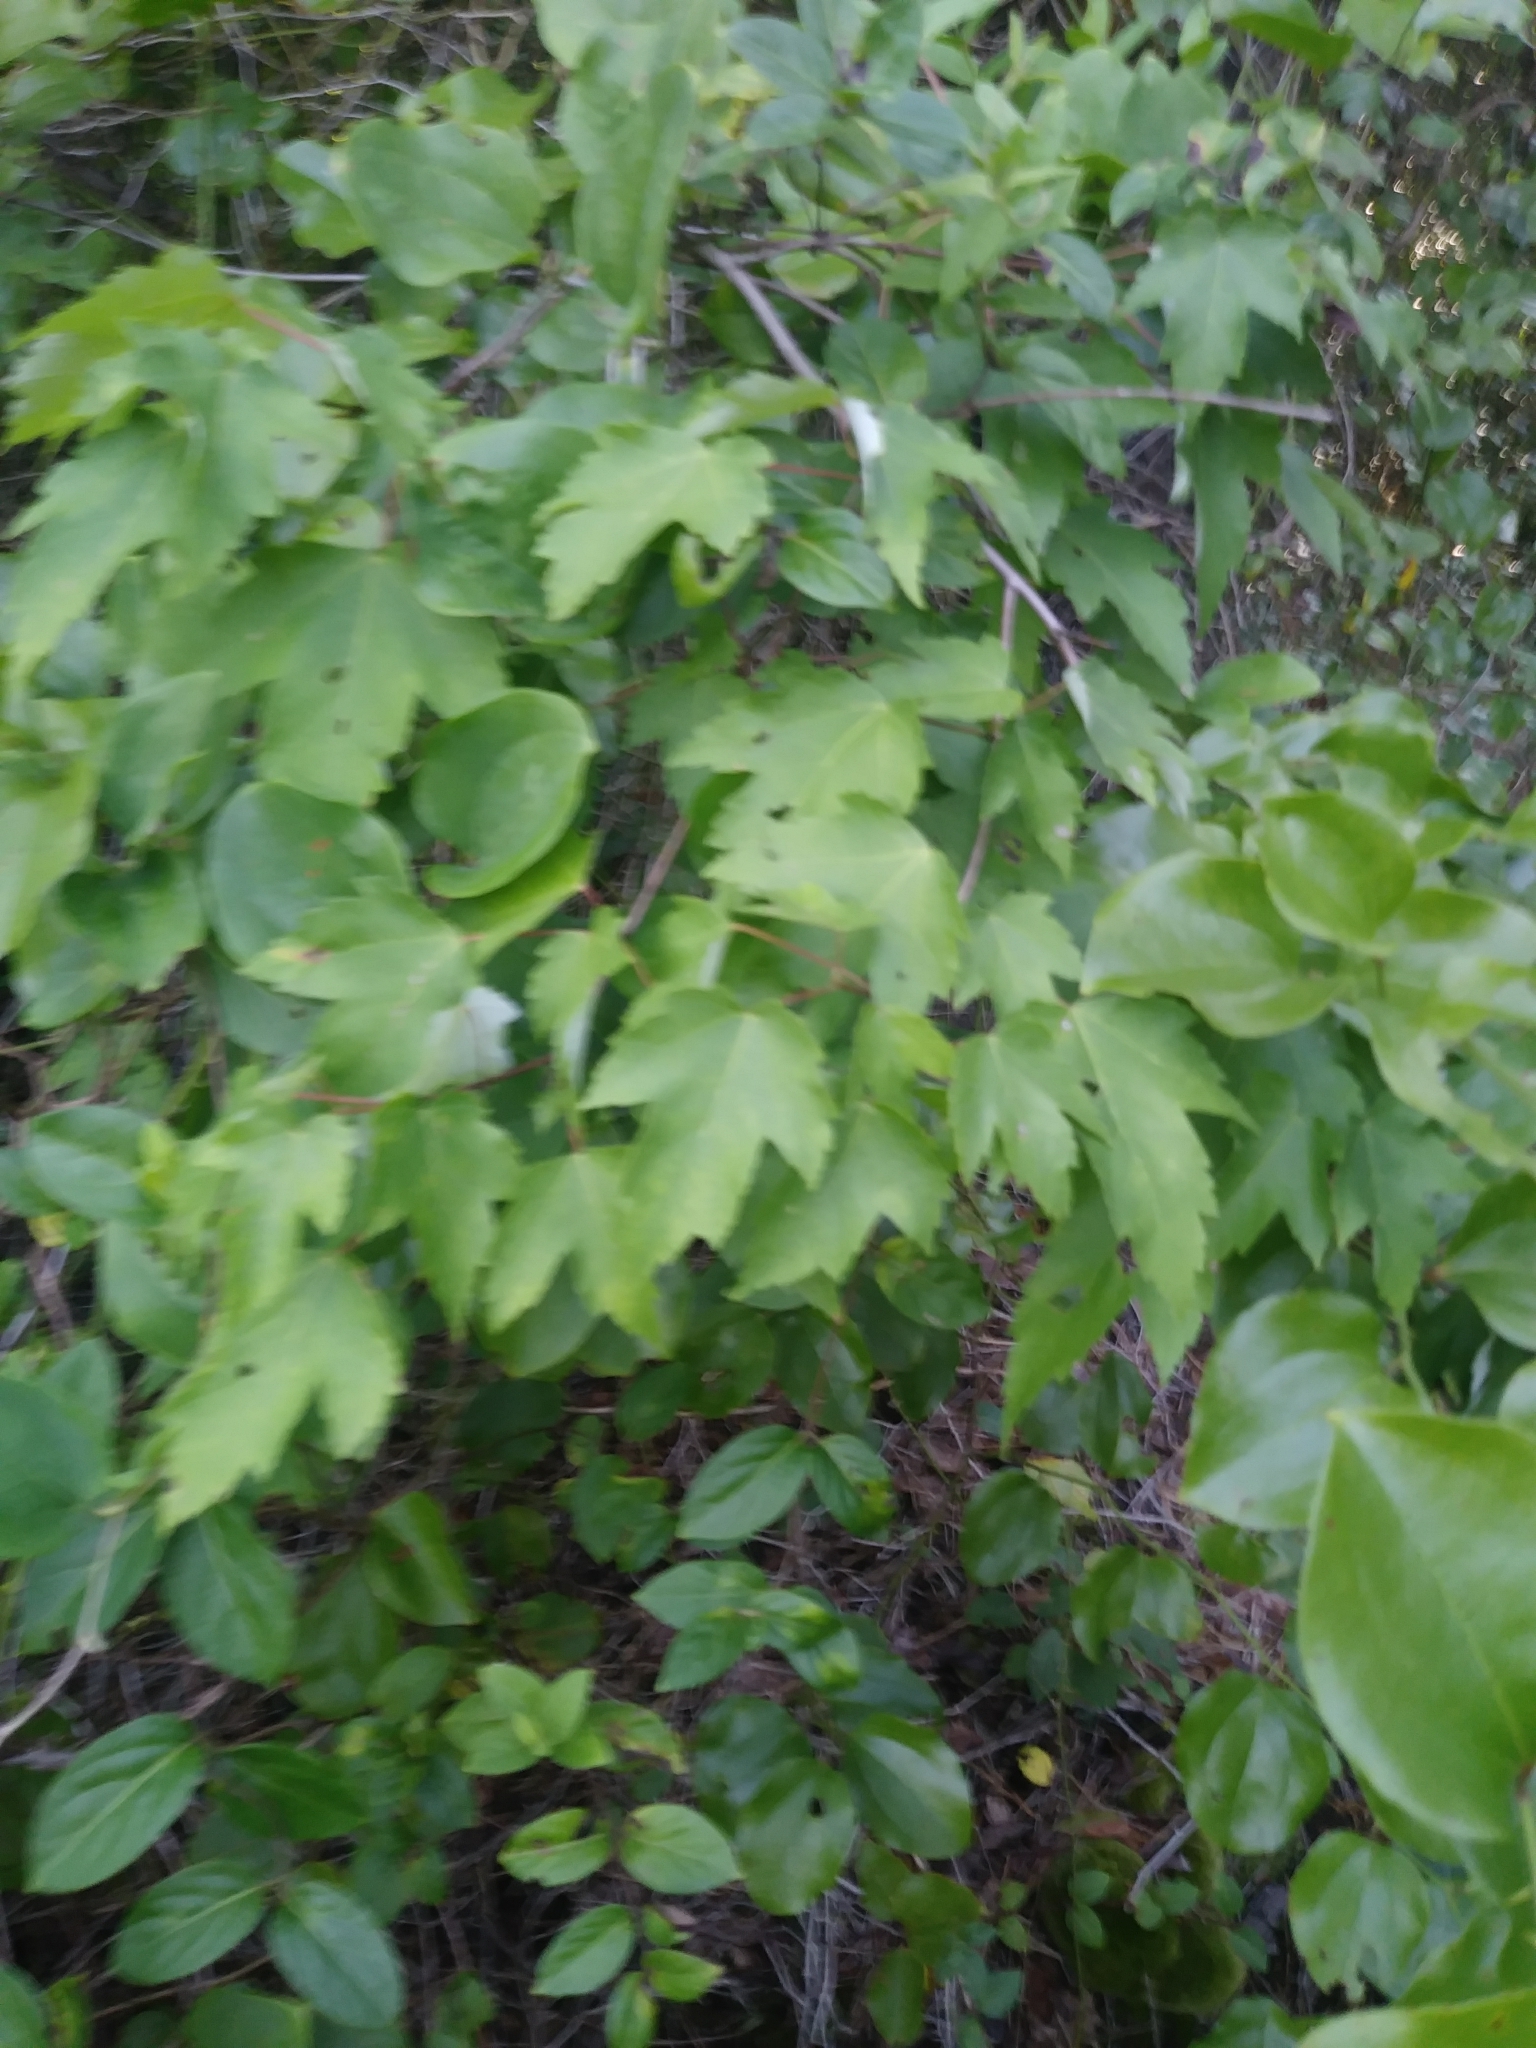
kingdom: Plantae
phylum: Tracheophyta
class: Magnoliopsida
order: Sapindales
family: Sapindaceae
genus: Acer
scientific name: Acer rubrum
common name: Red maple
